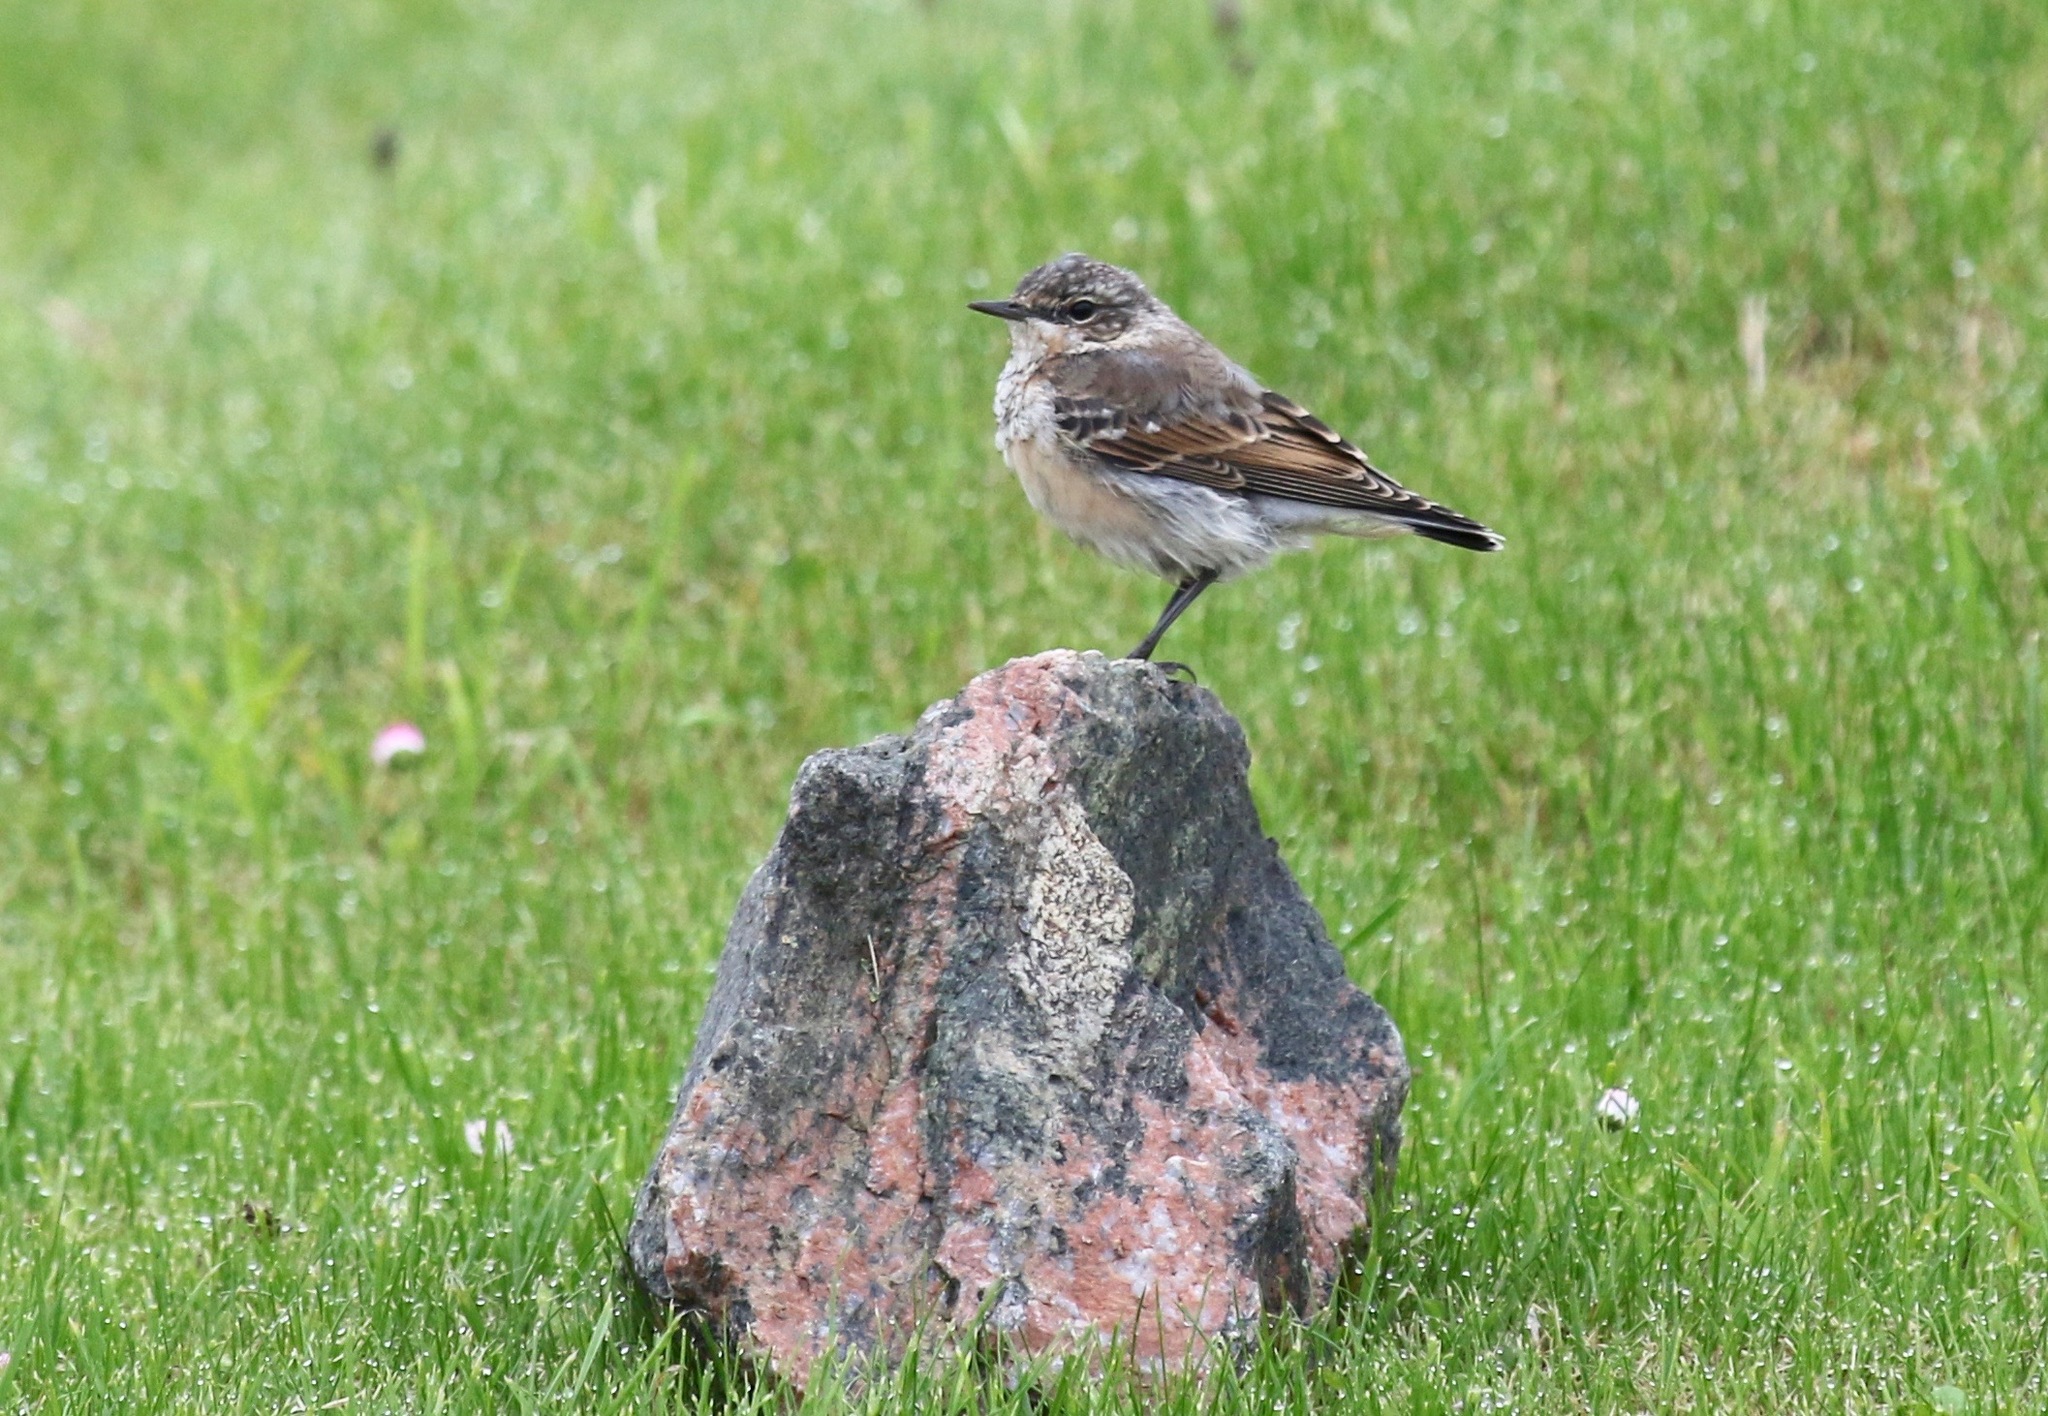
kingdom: Animalia
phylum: Chordata
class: Aves
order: Passeriformes
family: Muscicapidae
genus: Oenanthe
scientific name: Oenanthe oenanthe
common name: Northern wheatear
